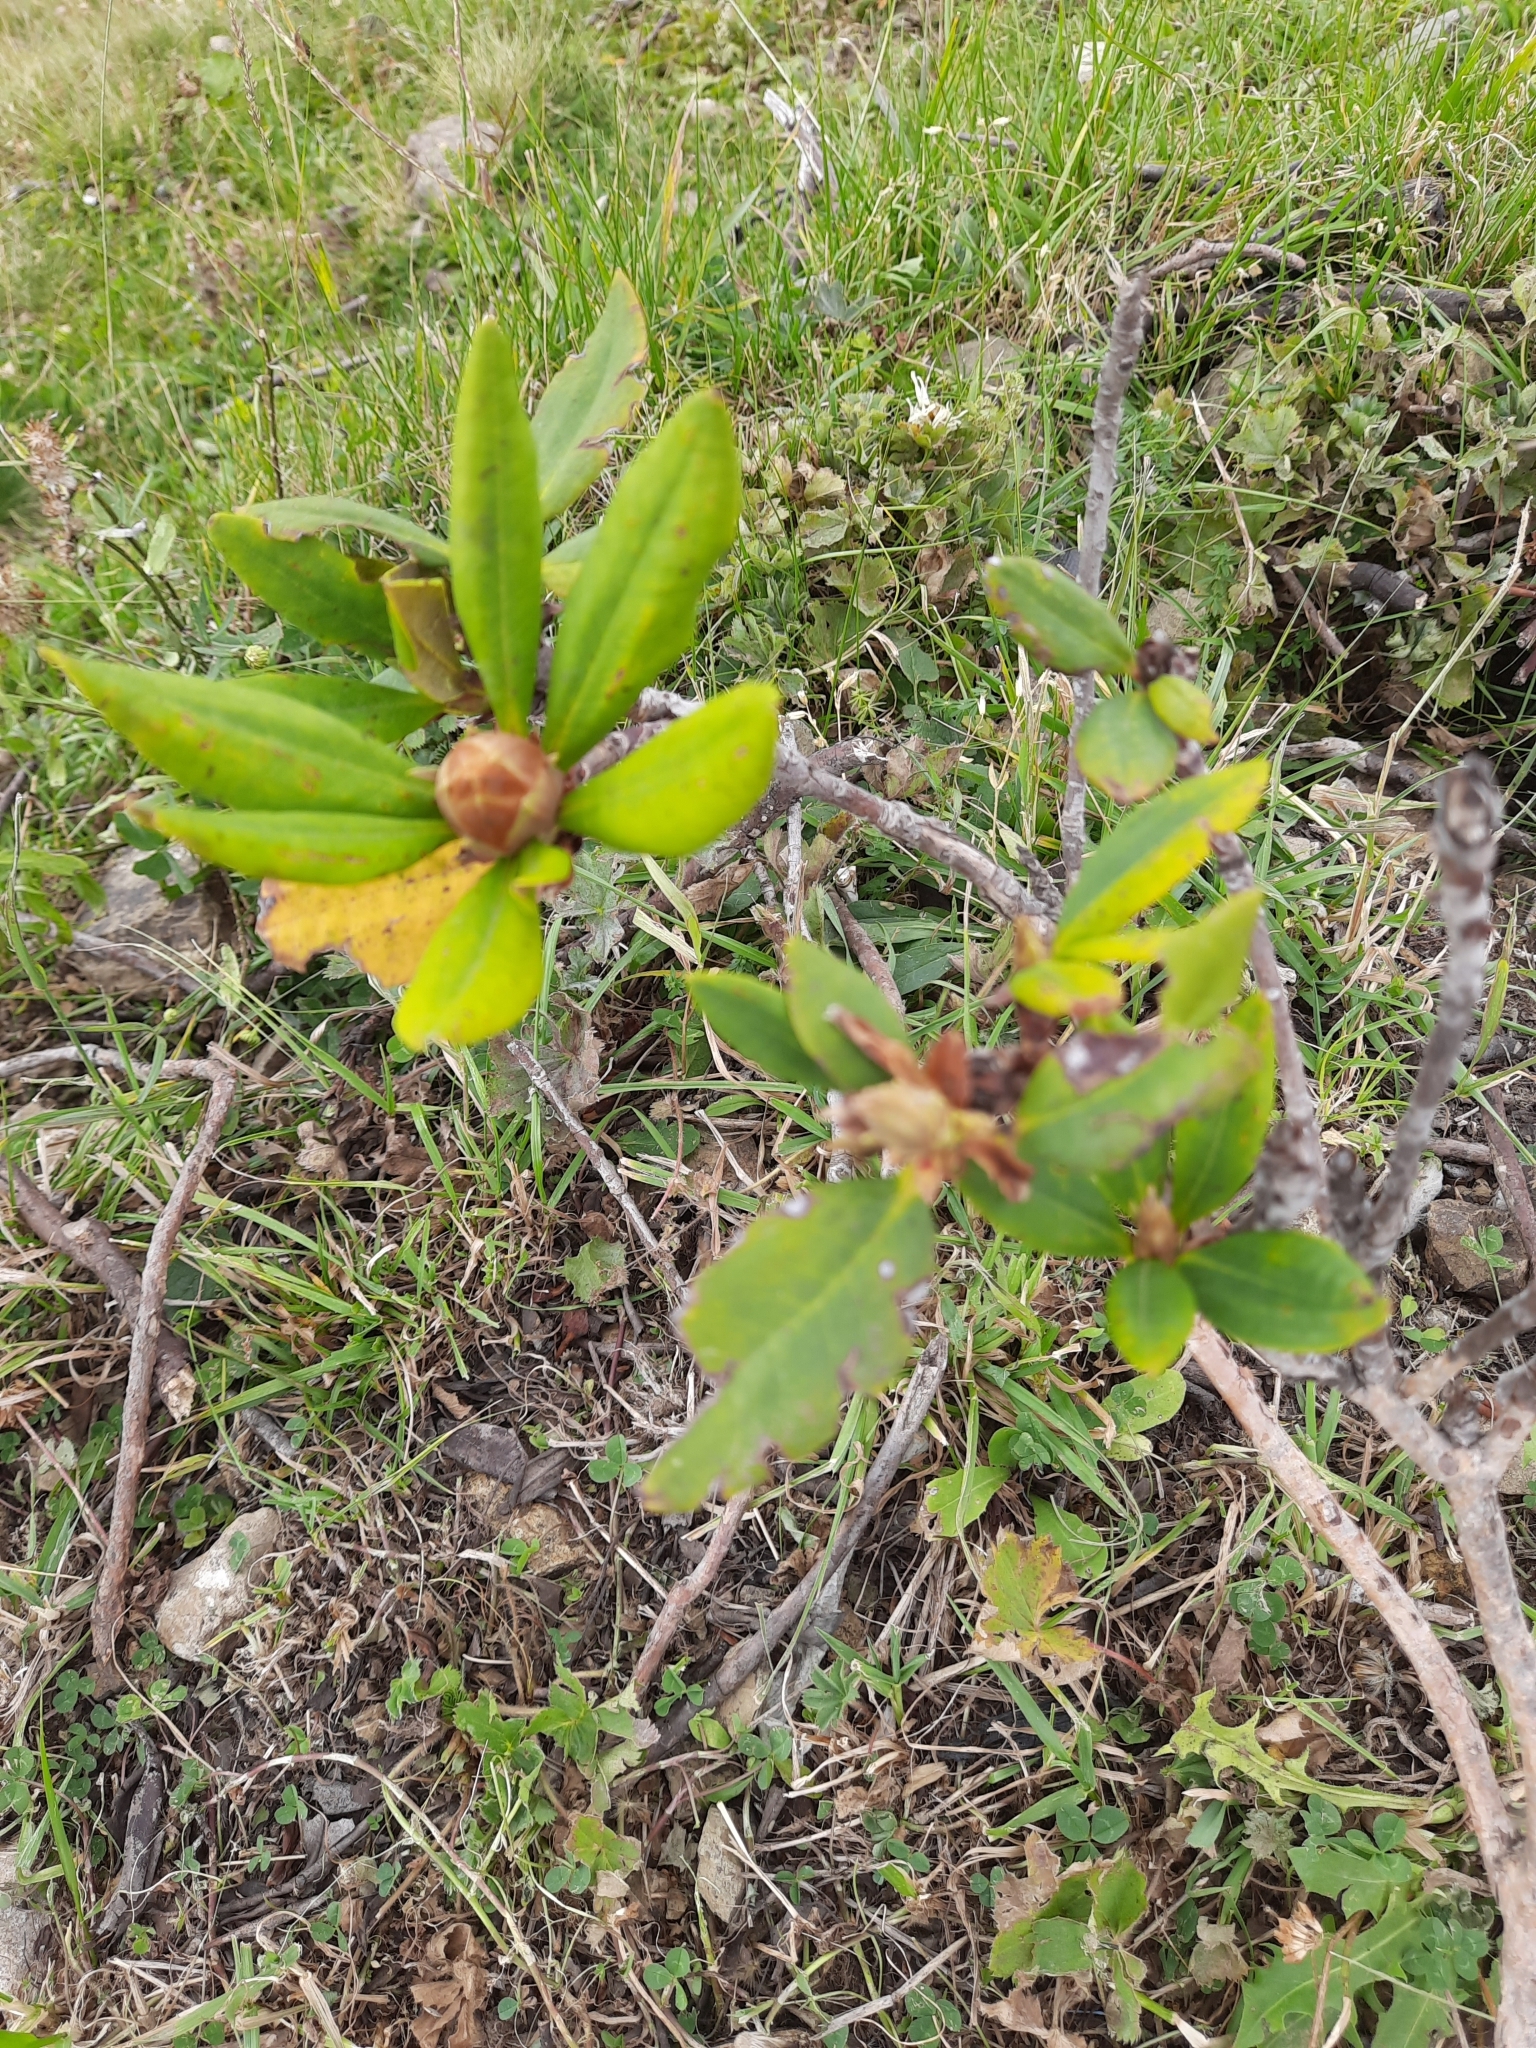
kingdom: Plantae
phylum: Tracheophyta
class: Magnoliopsida
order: Ericales
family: Ericaceae
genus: Rhododendron
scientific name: Rhododendron caucasicum
